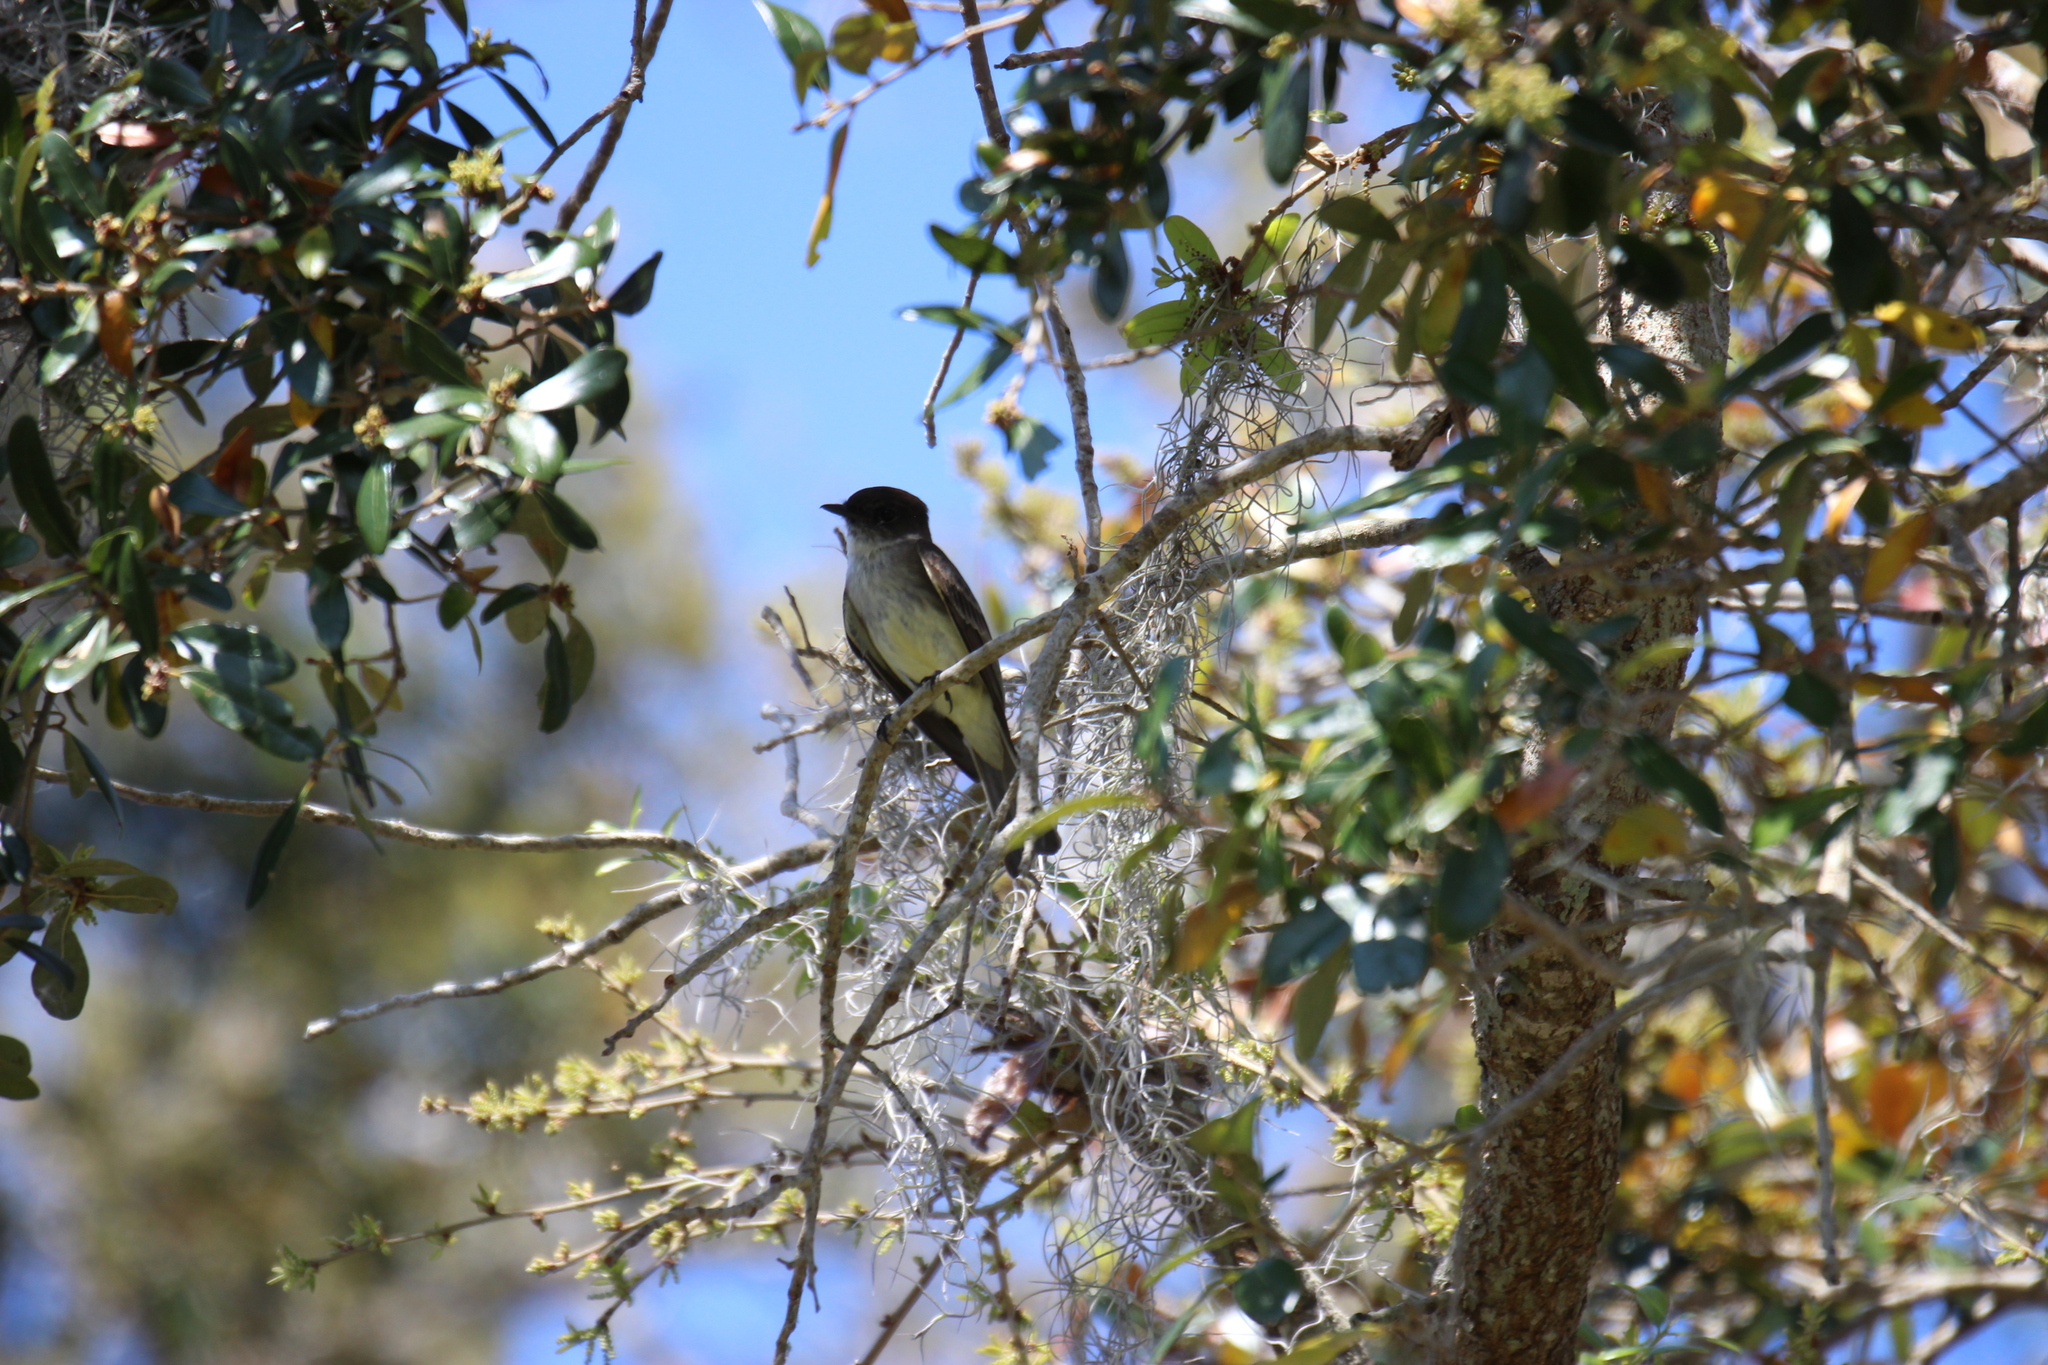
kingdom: Animalia
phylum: Chordata
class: Aves
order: Passeriformes
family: Tyrannidae
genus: Sayornis
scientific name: Sayornis phoebe
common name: Eastern phoebe
